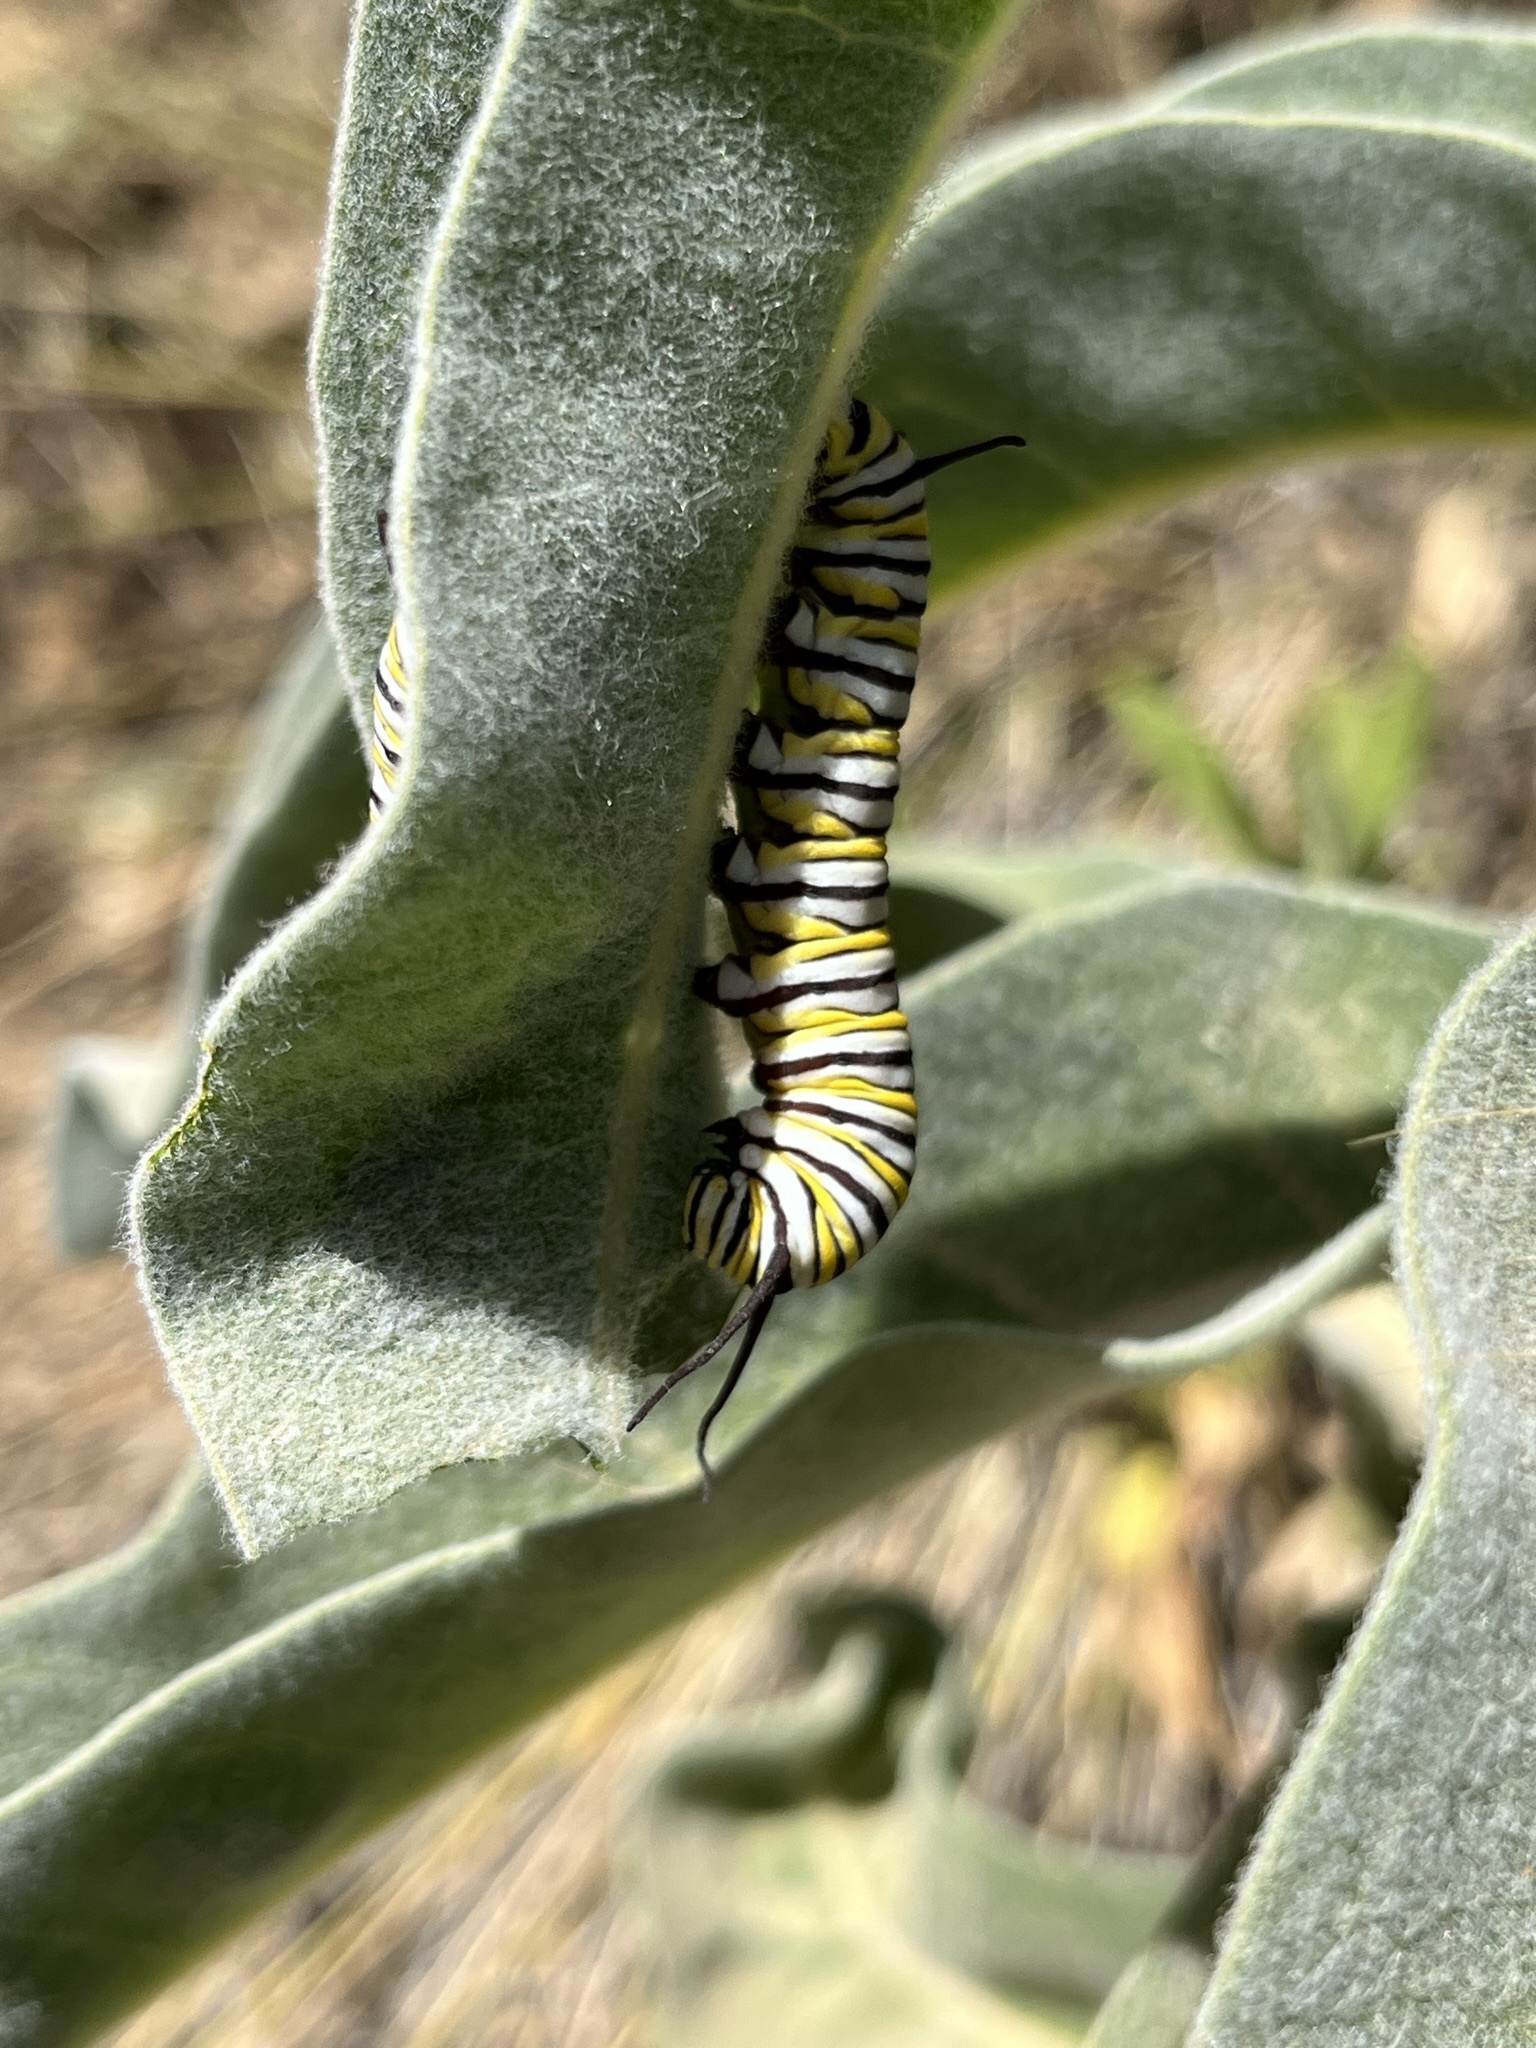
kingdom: Animalia
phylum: Arthropoda
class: Insecta
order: Lepidoptera
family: Nymphalidae
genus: Danaus
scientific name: Danaus plexippus
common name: Monarch
